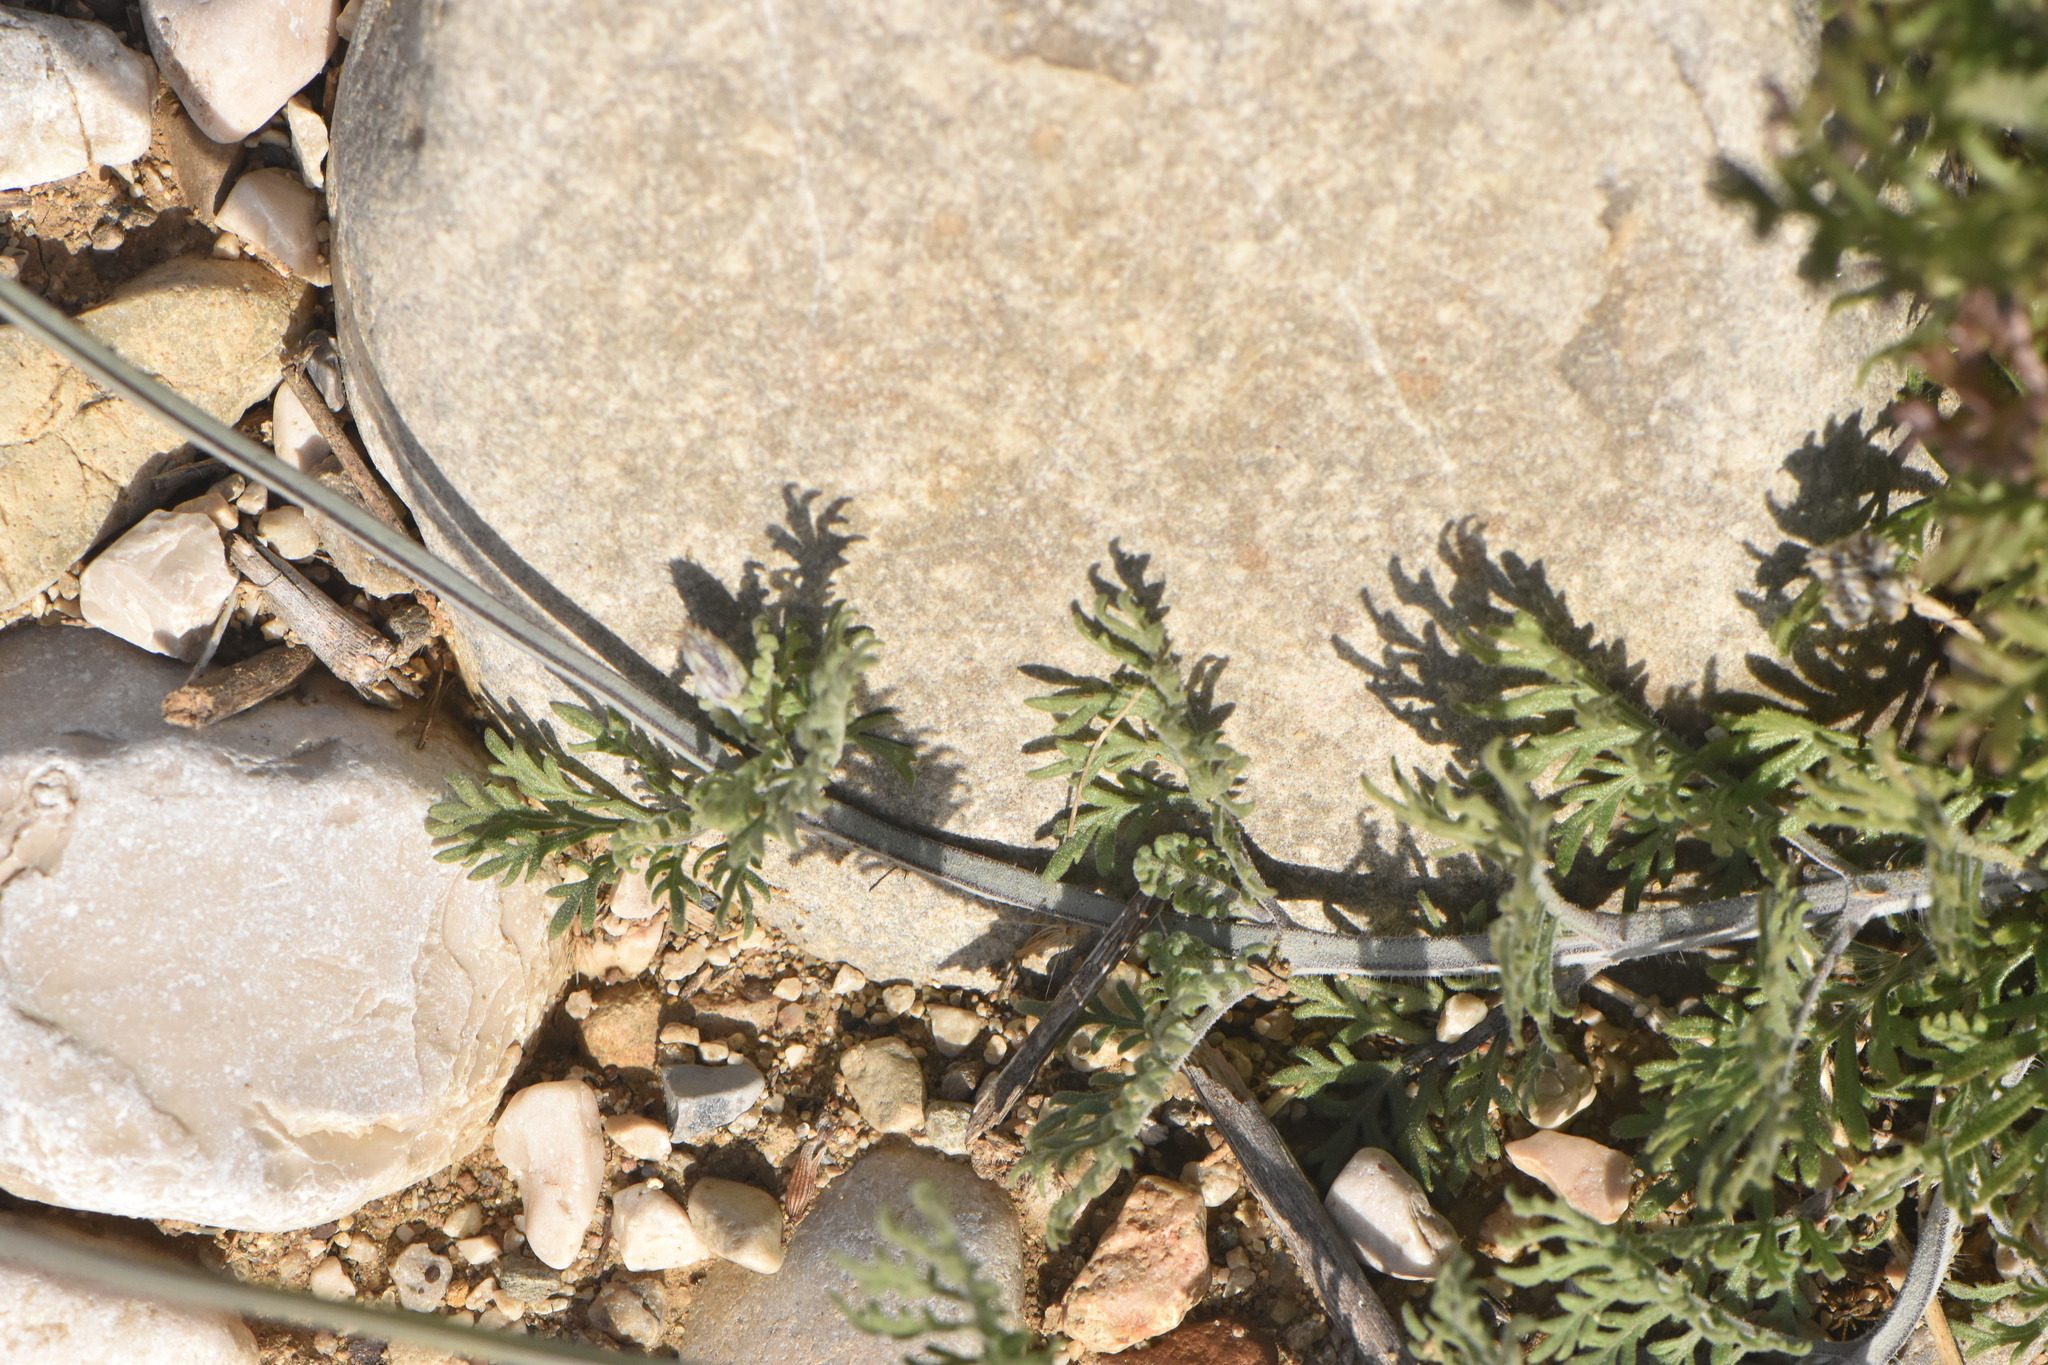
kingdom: Plantae
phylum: Tracheophyta
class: Magnoliopsida
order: Lamiales
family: Lamiaceae
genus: Lavandula
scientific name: Lavandula multifida
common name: Fern-leaf lavender
